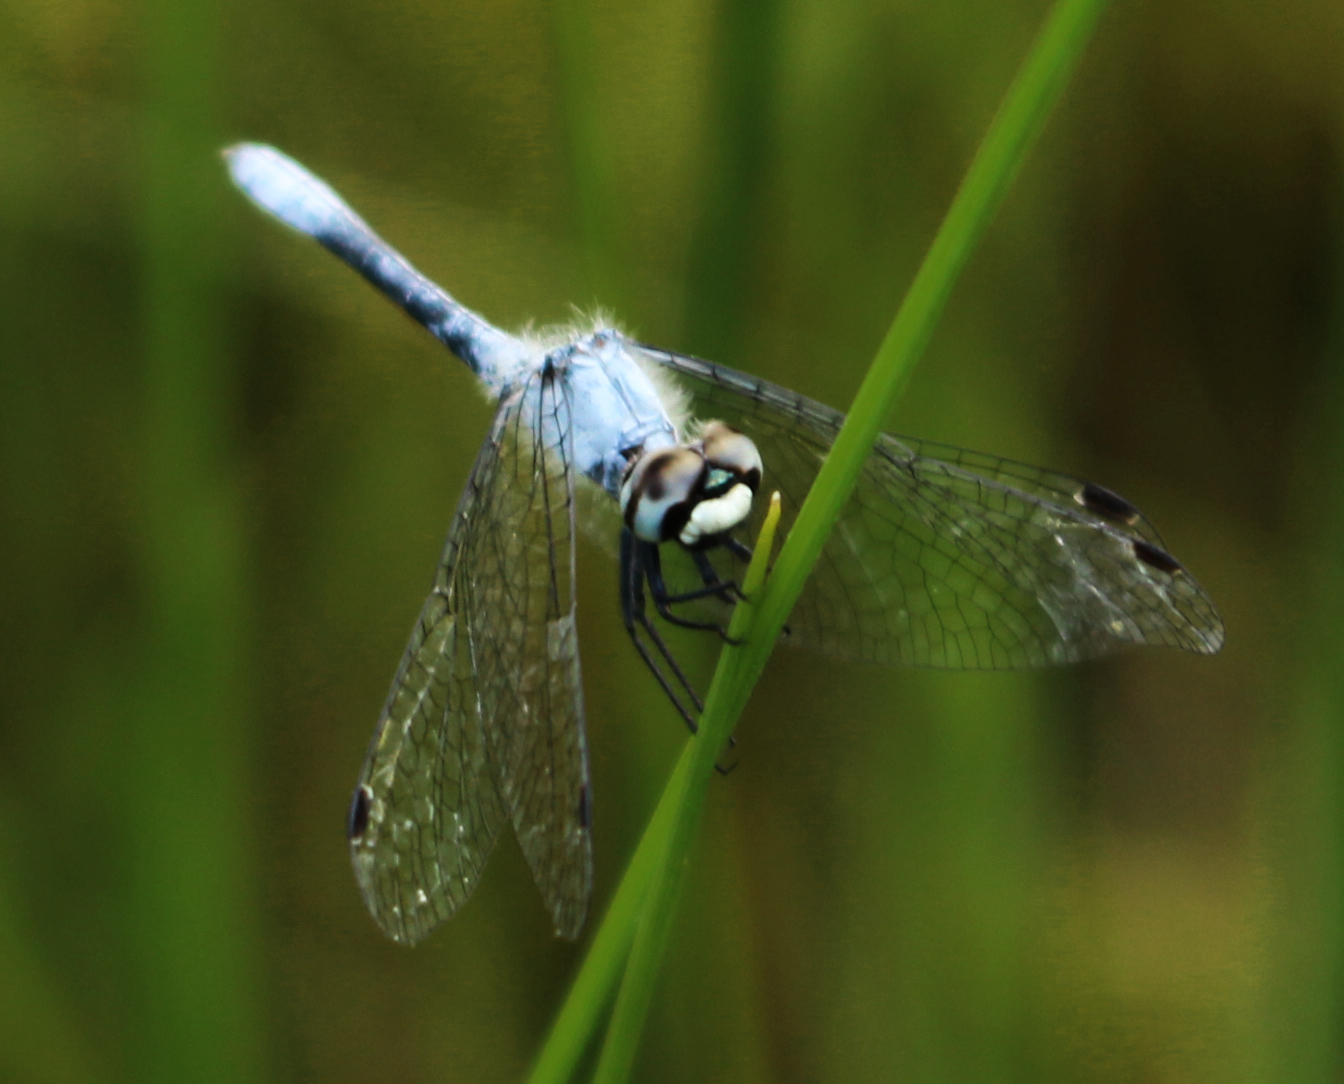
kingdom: Animalia
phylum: Arthropoda
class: Insecta
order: Odonata
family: Libellulidae
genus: Nannothemis
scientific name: Nannothemis bella
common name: Elfin skimmer
